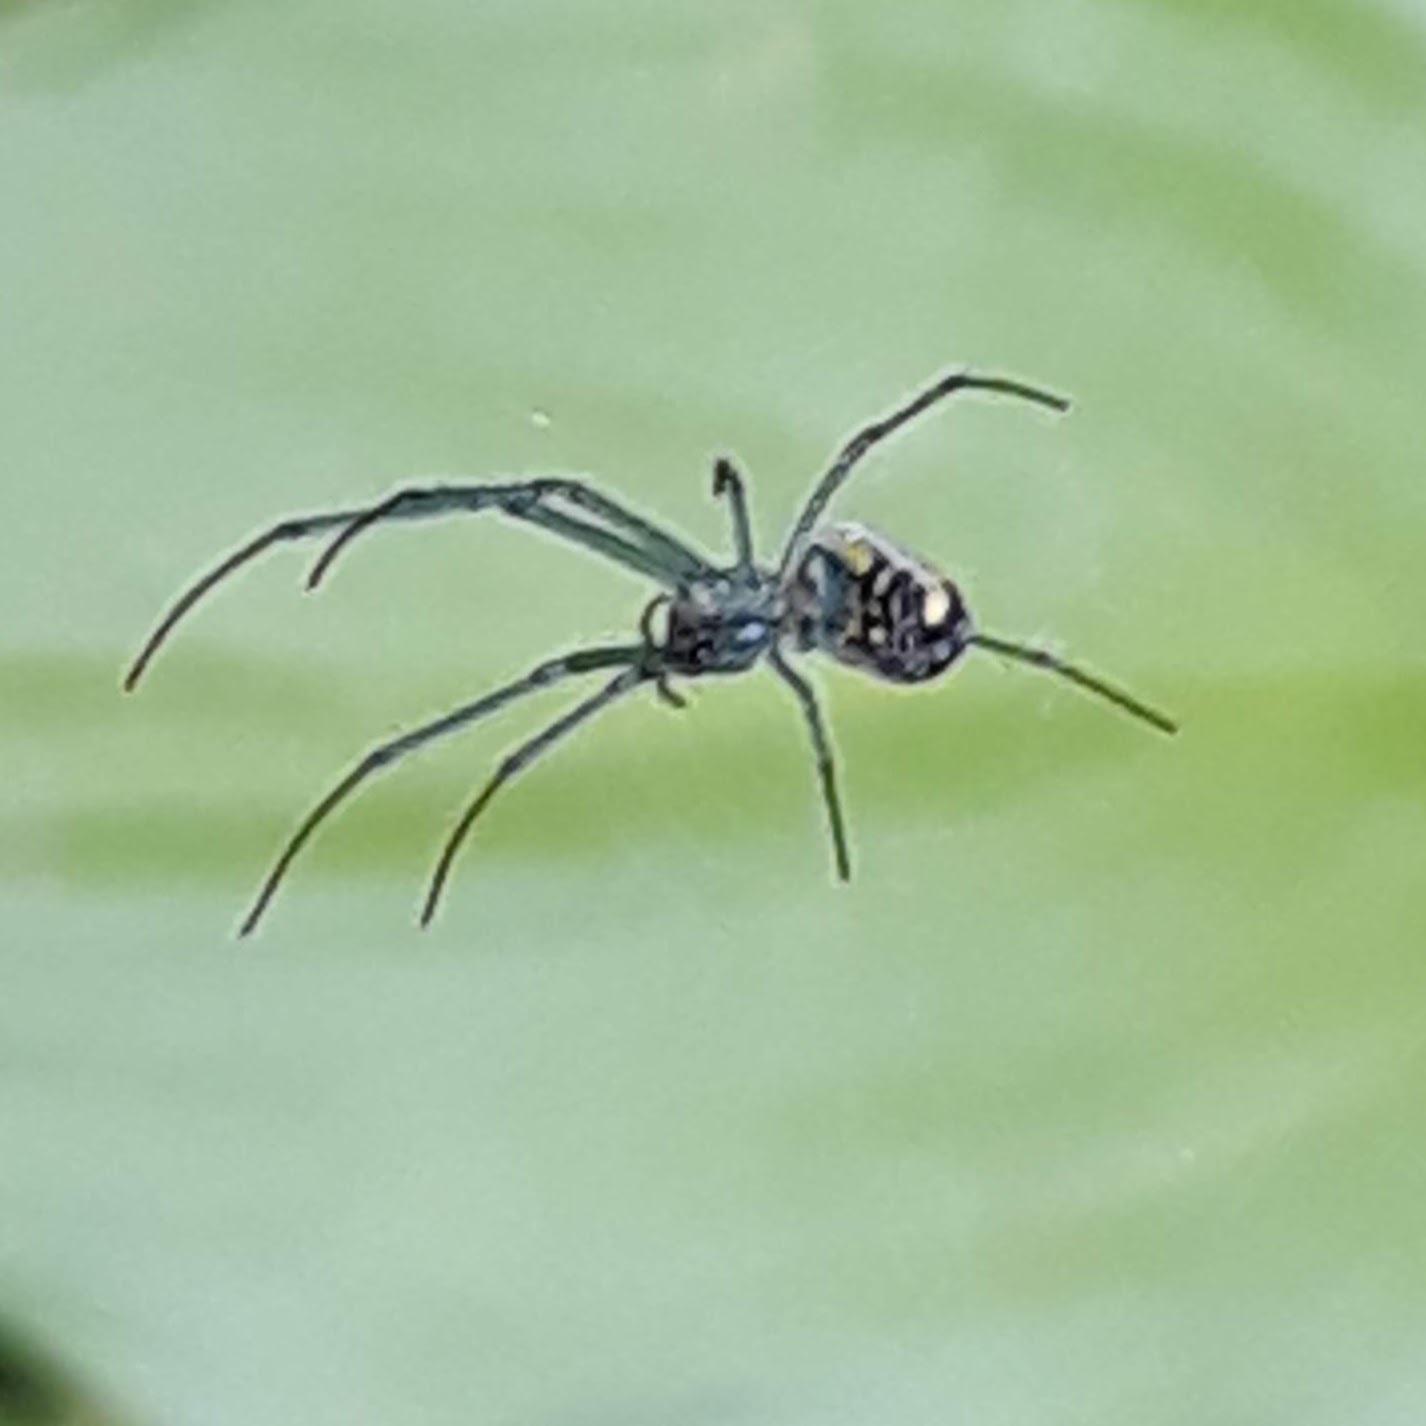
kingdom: Animalia
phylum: Arthropoda
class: Arachnida
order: Araneae
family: Tetragnathidae
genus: Leucauge
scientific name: Leucauge venusta
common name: Longjawed orb weavers
